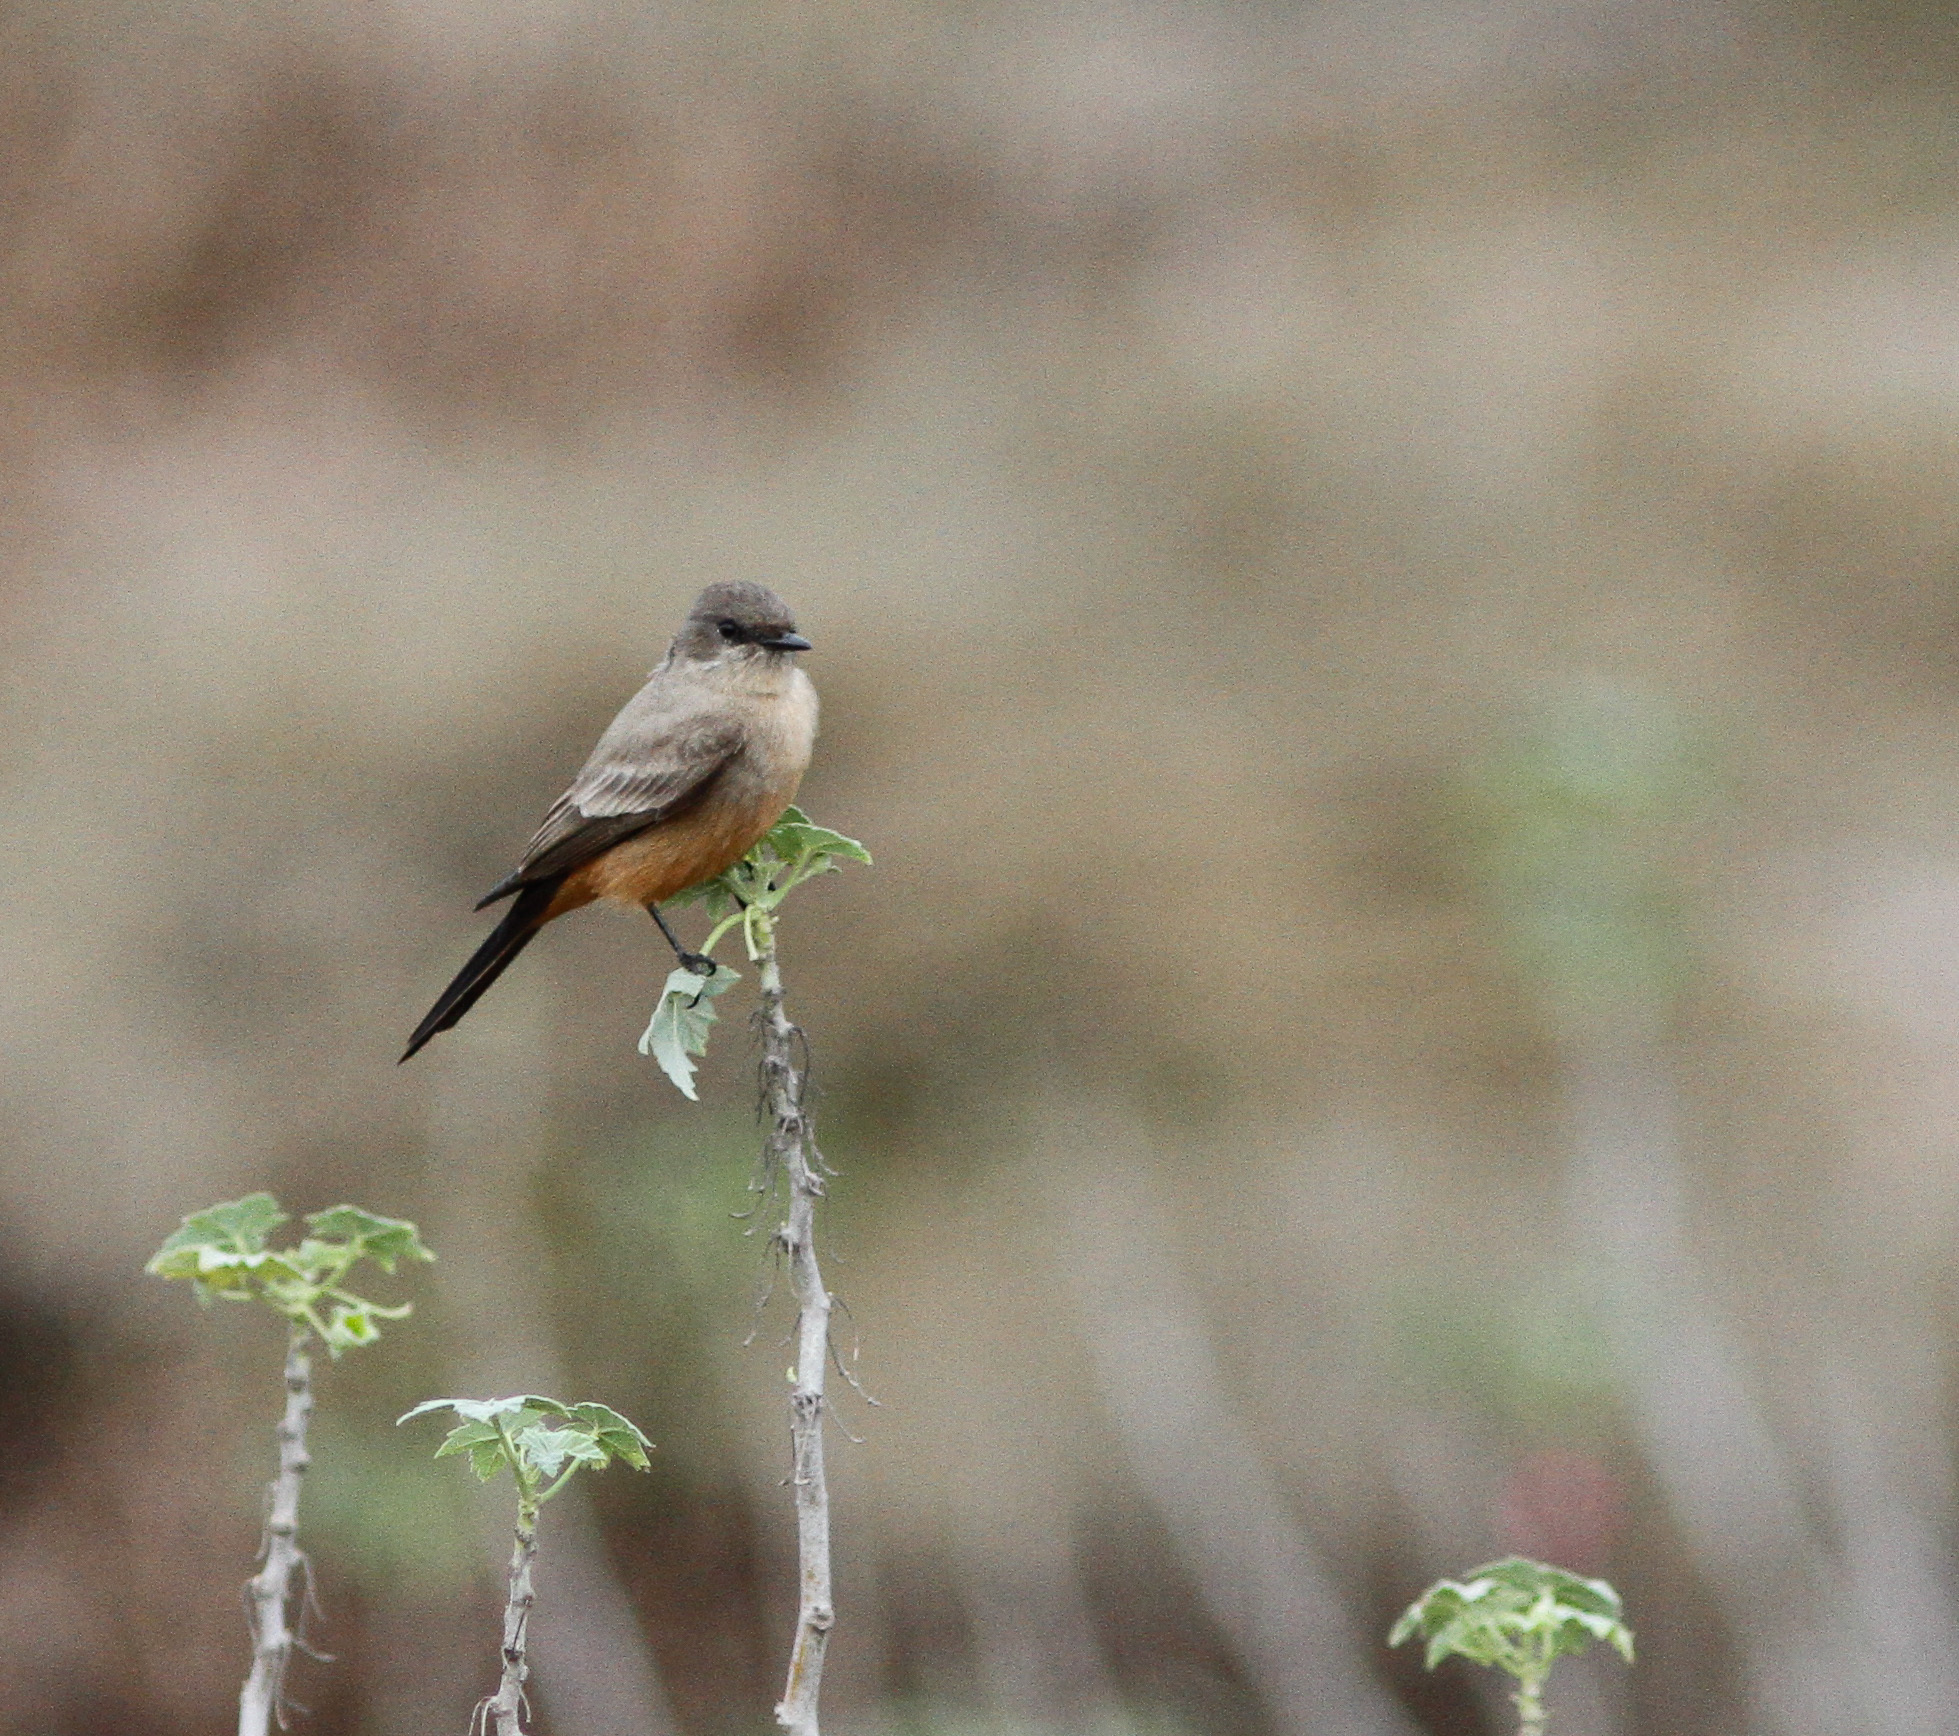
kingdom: Animalia
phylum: Chordata
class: Aves
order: Passeriformes
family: Tyrannidae
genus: Sayornis
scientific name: Sayornis saya
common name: Say's phoebe
